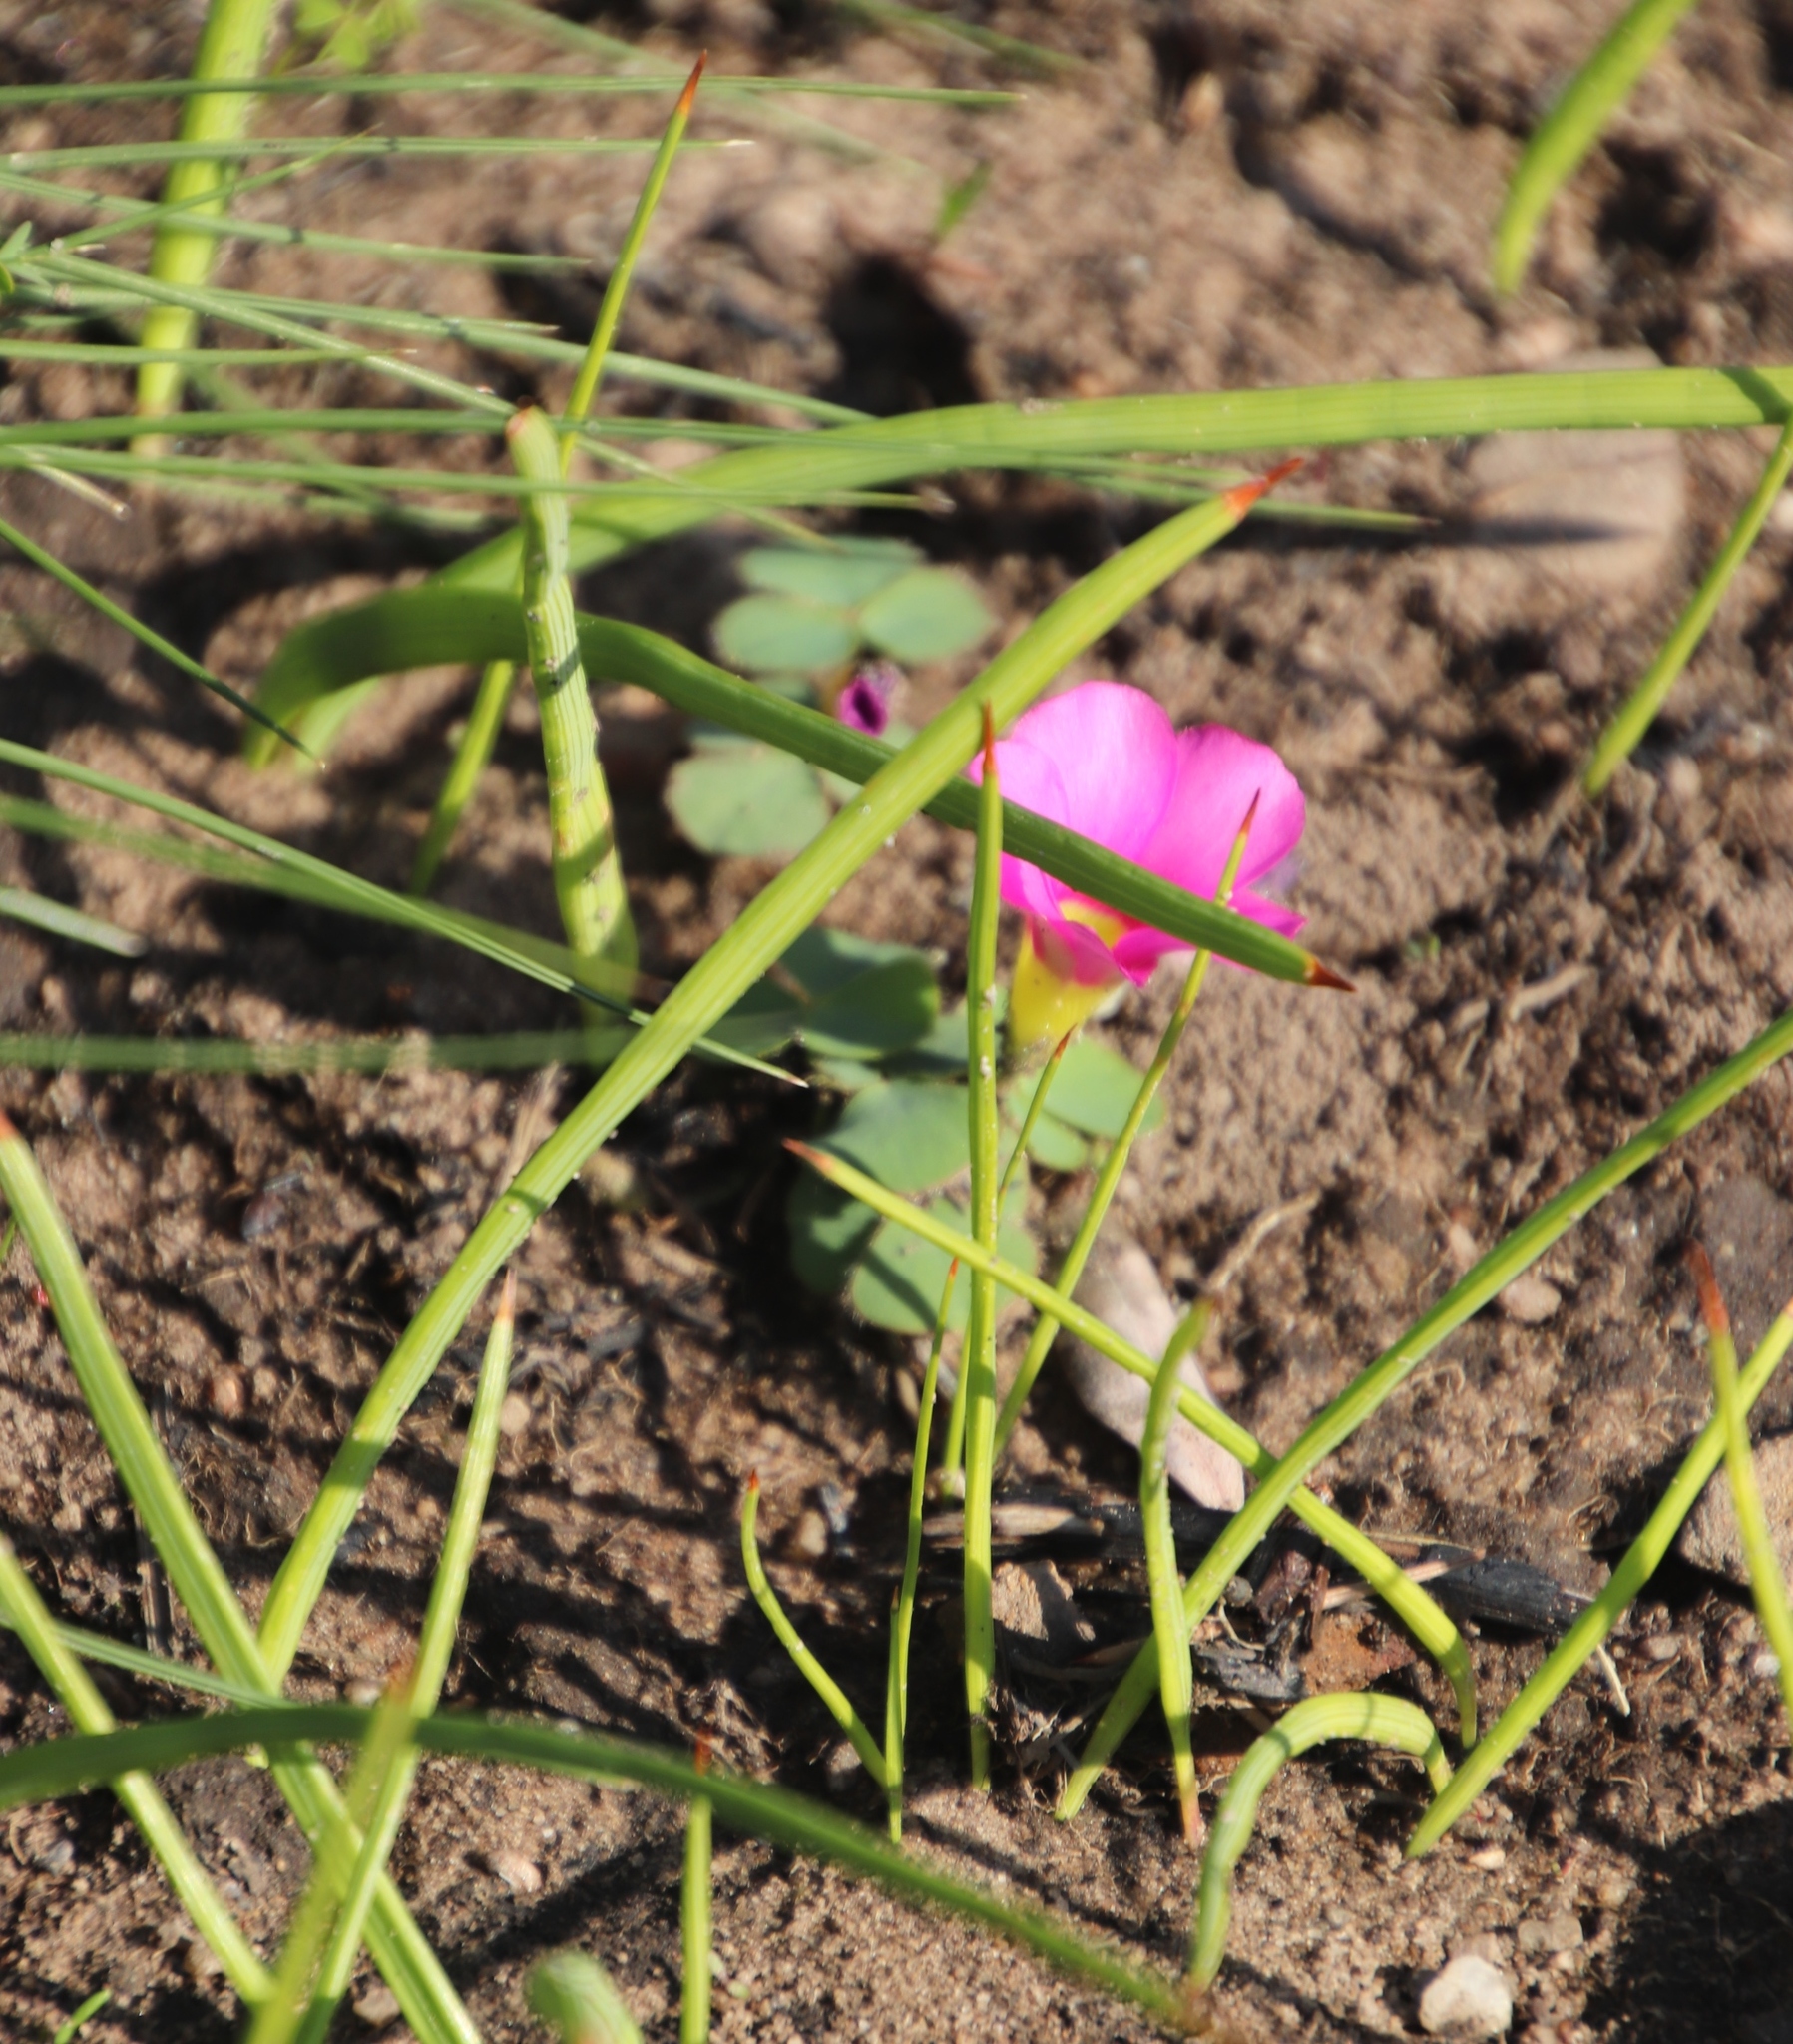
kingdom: Plantae
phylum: Tracheophyta
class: Magnoliopsida
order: Oxalidales
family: Oxalidaceae
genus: Oxalis
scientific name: Oxalis purpurea
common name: Purple woodsorrel
